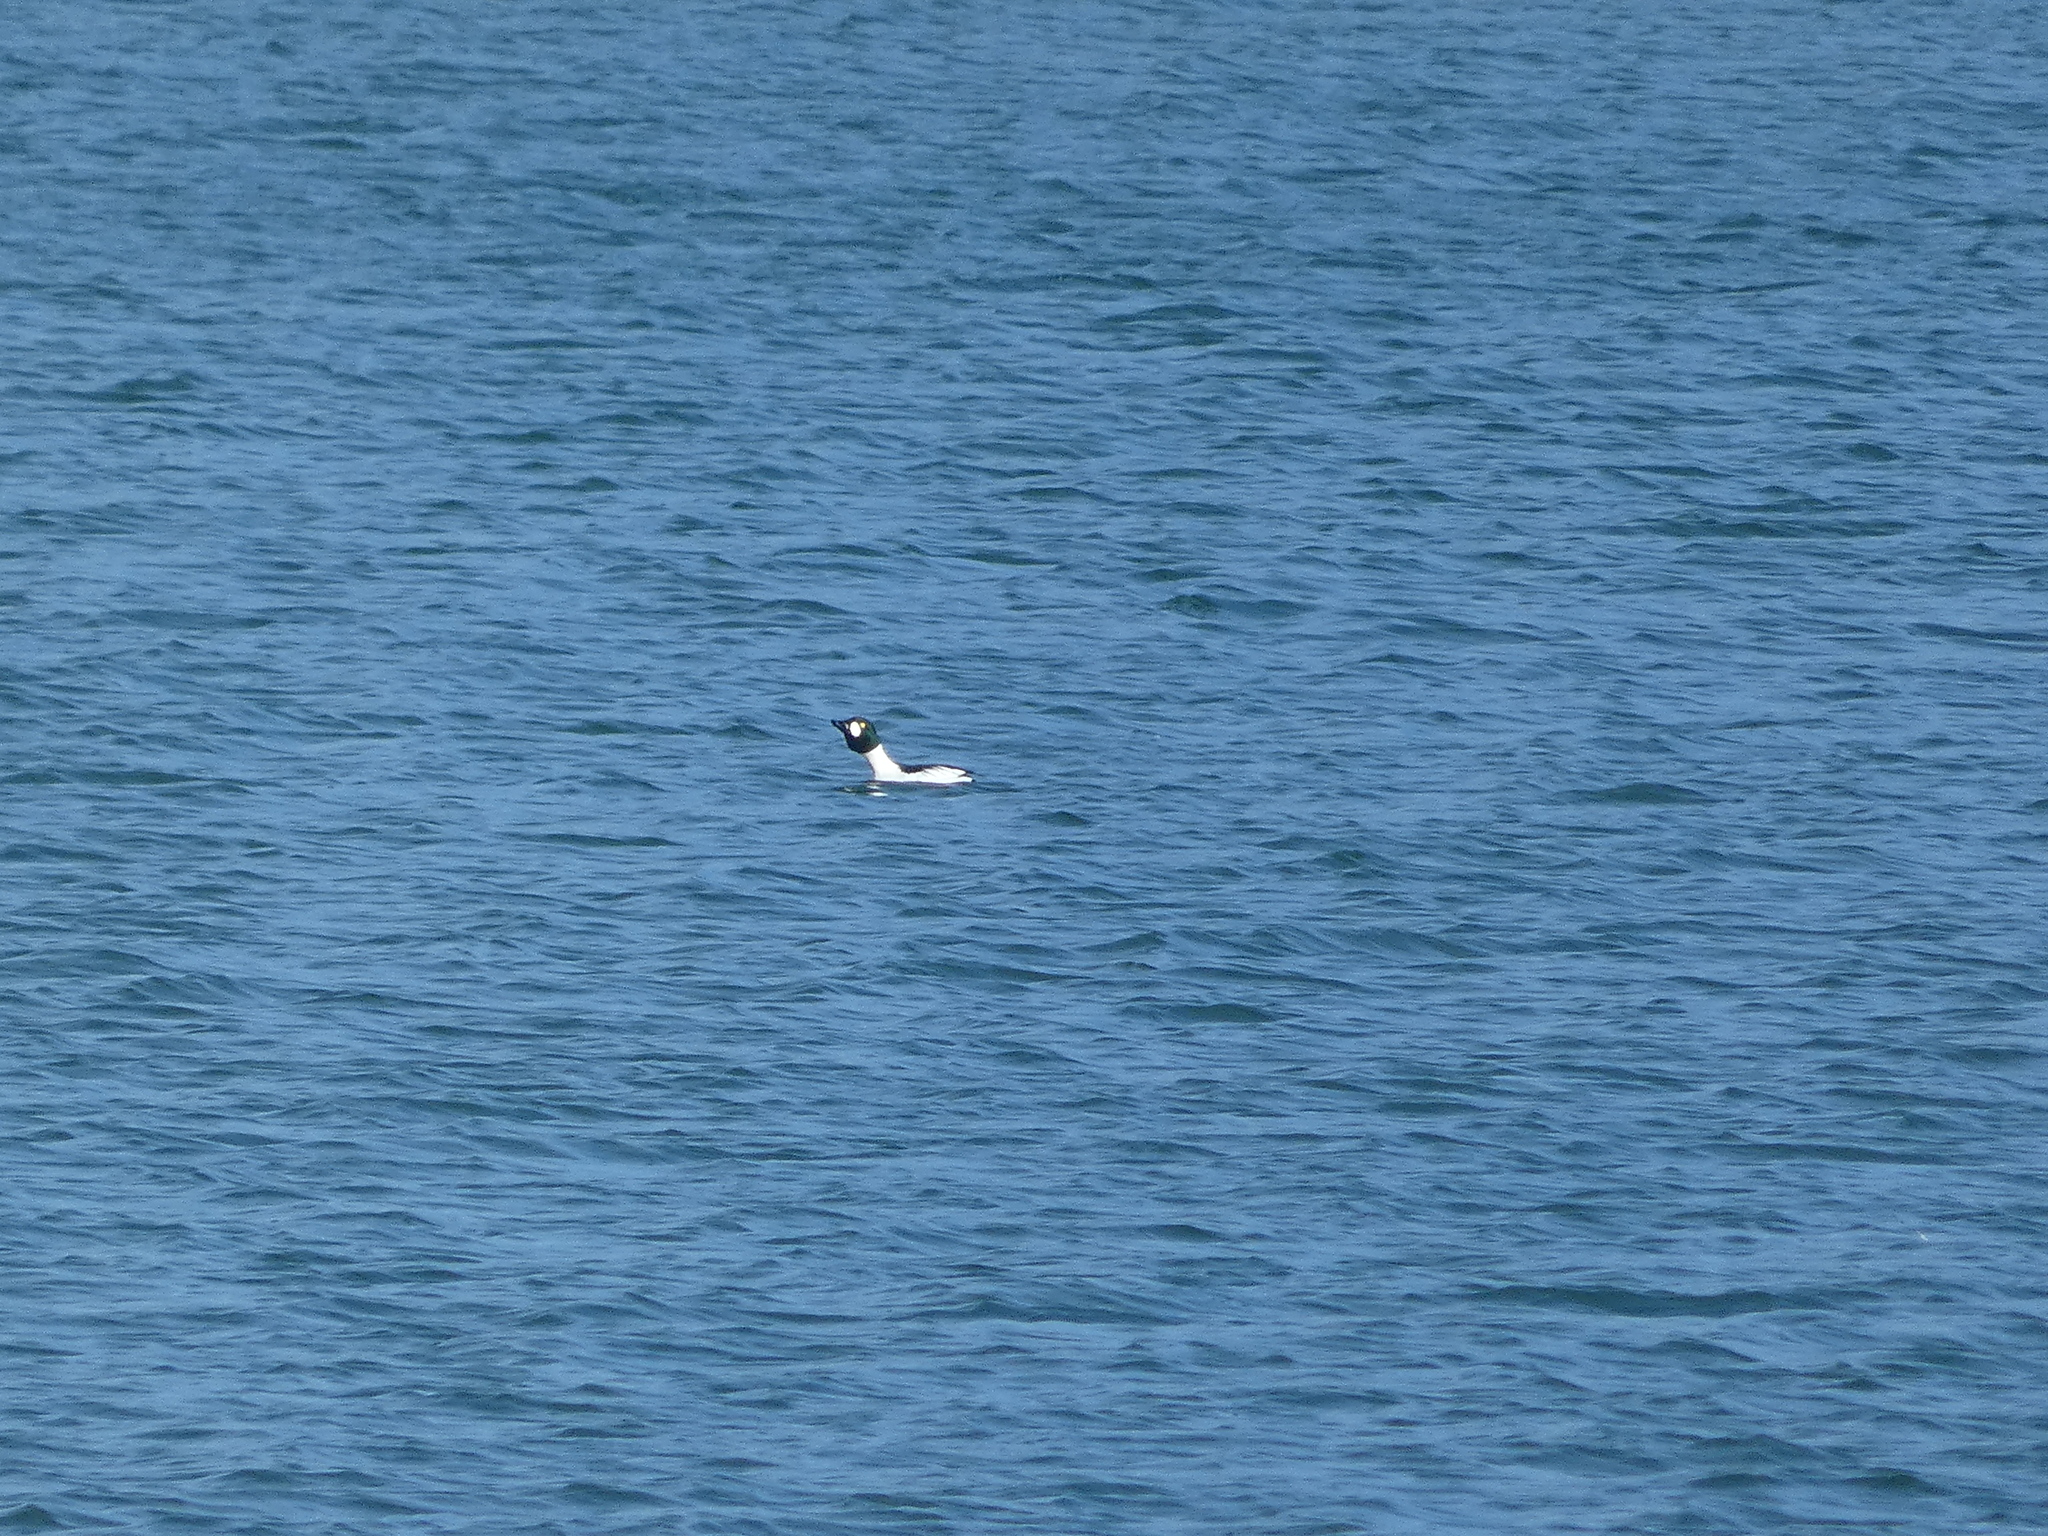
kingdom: Animalia
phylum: Chordata
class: Aves
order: Anseriformes
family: Anatidae
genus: Bucephala
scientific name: Bucephala clangula
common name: Common goldeneye
